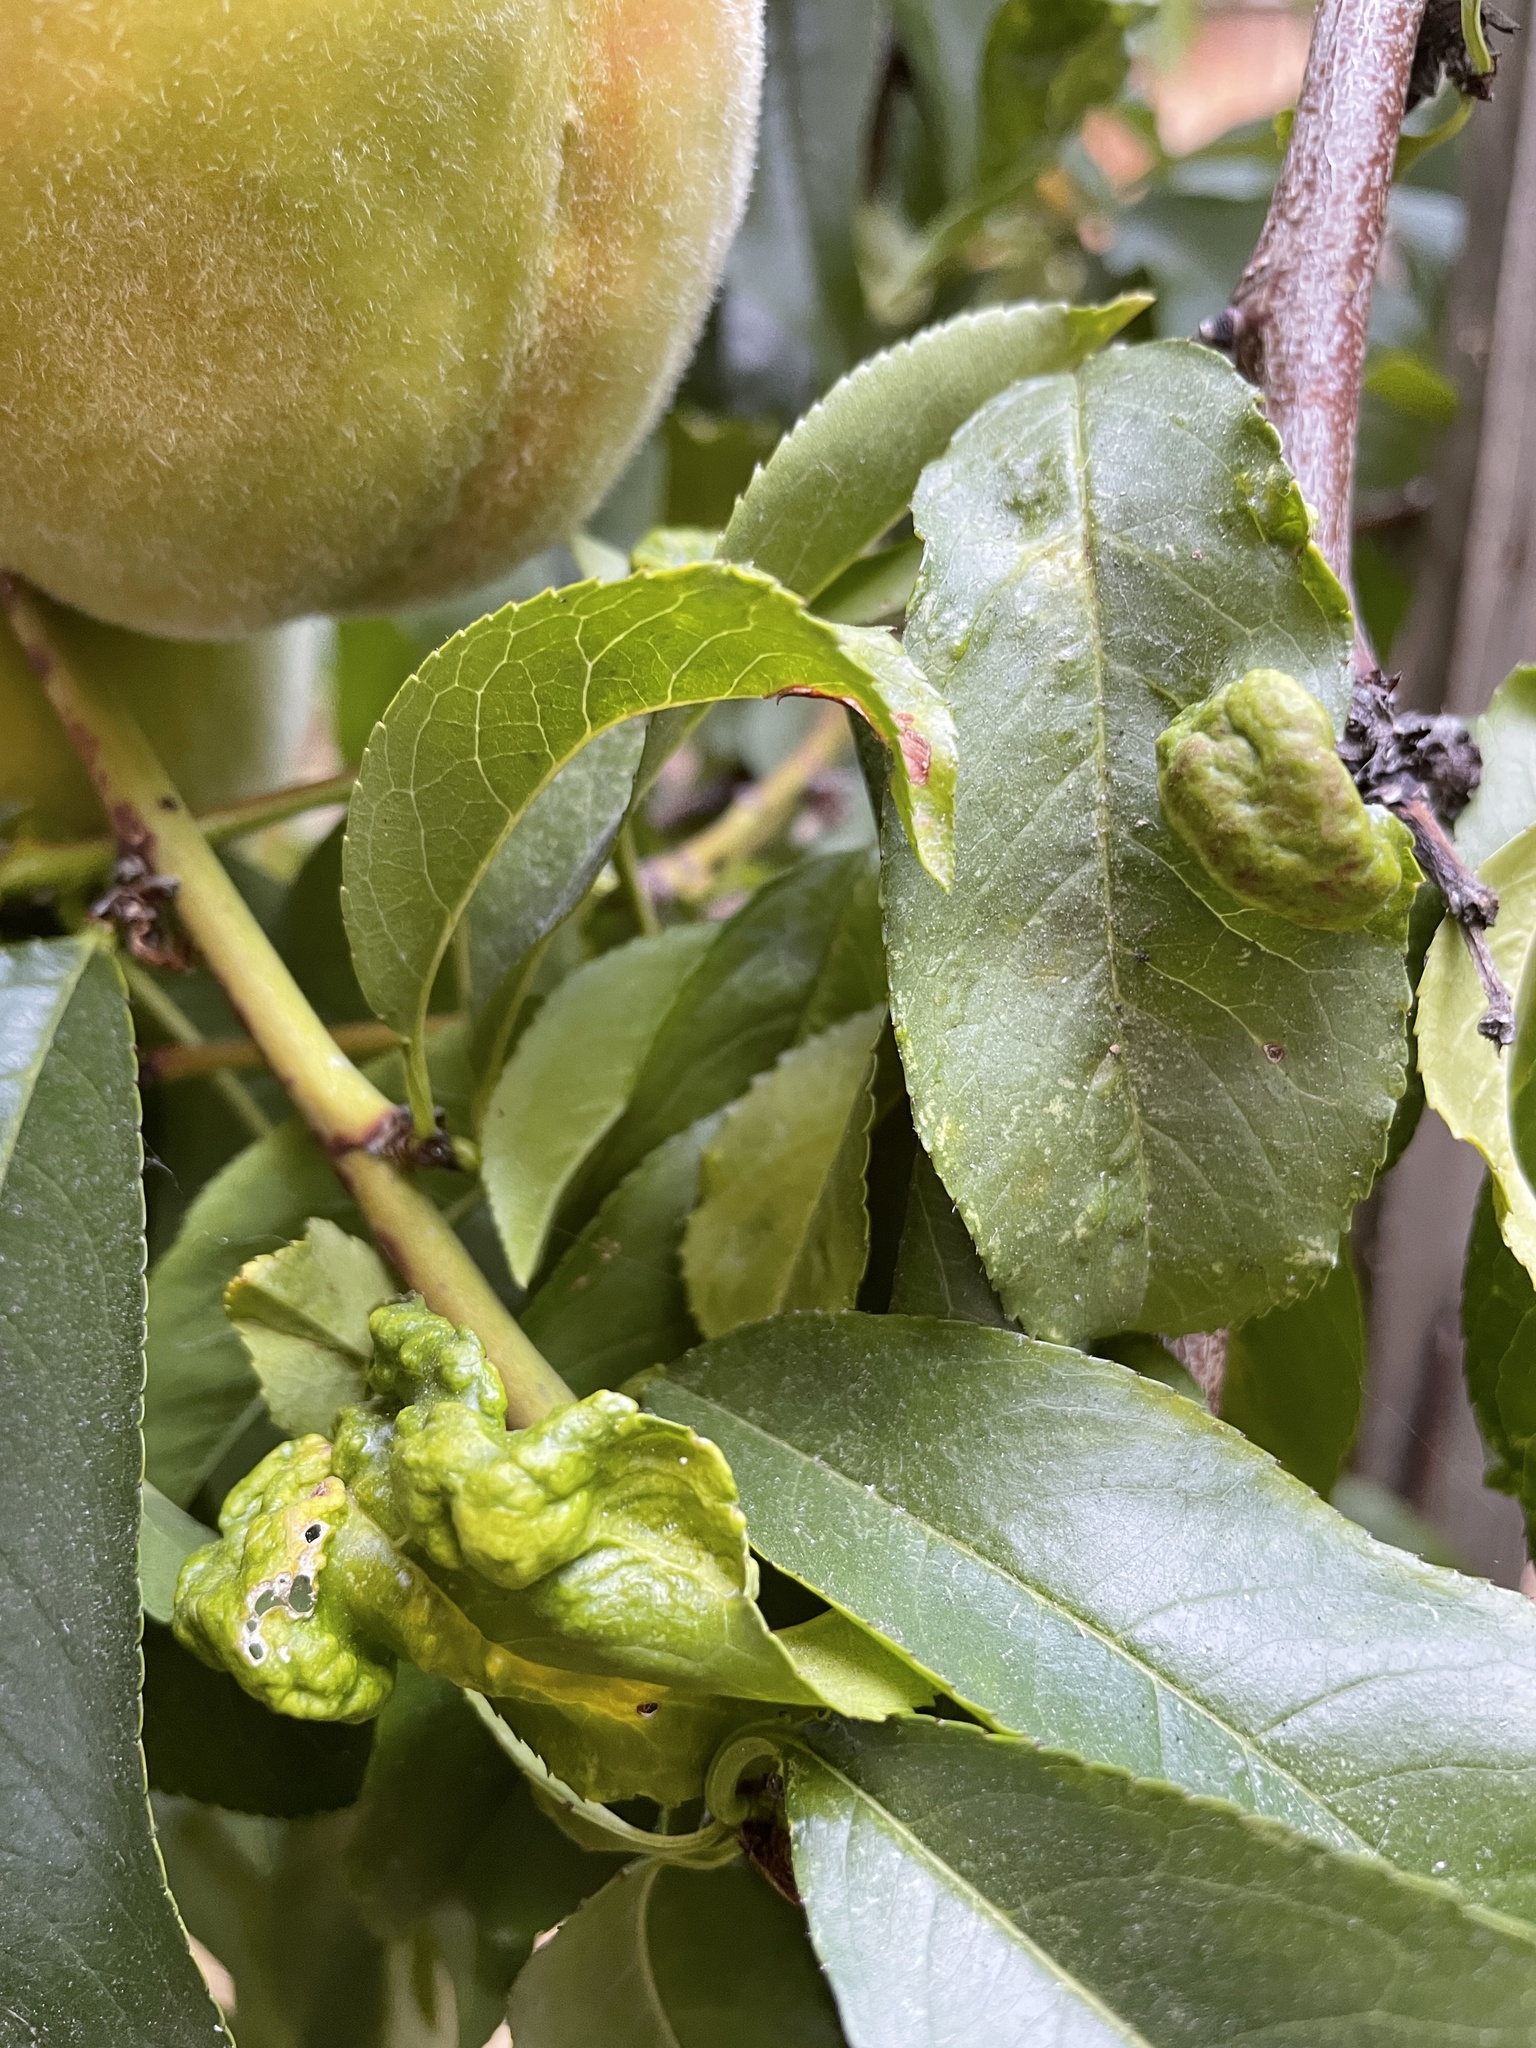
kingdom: Fungi
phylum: Ascomycota
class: Taphrinomycetes
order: Taphrinales
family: Taphrinaceae
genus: Taphrina
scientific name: Taphrina deformans
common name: Peach leaf curl
